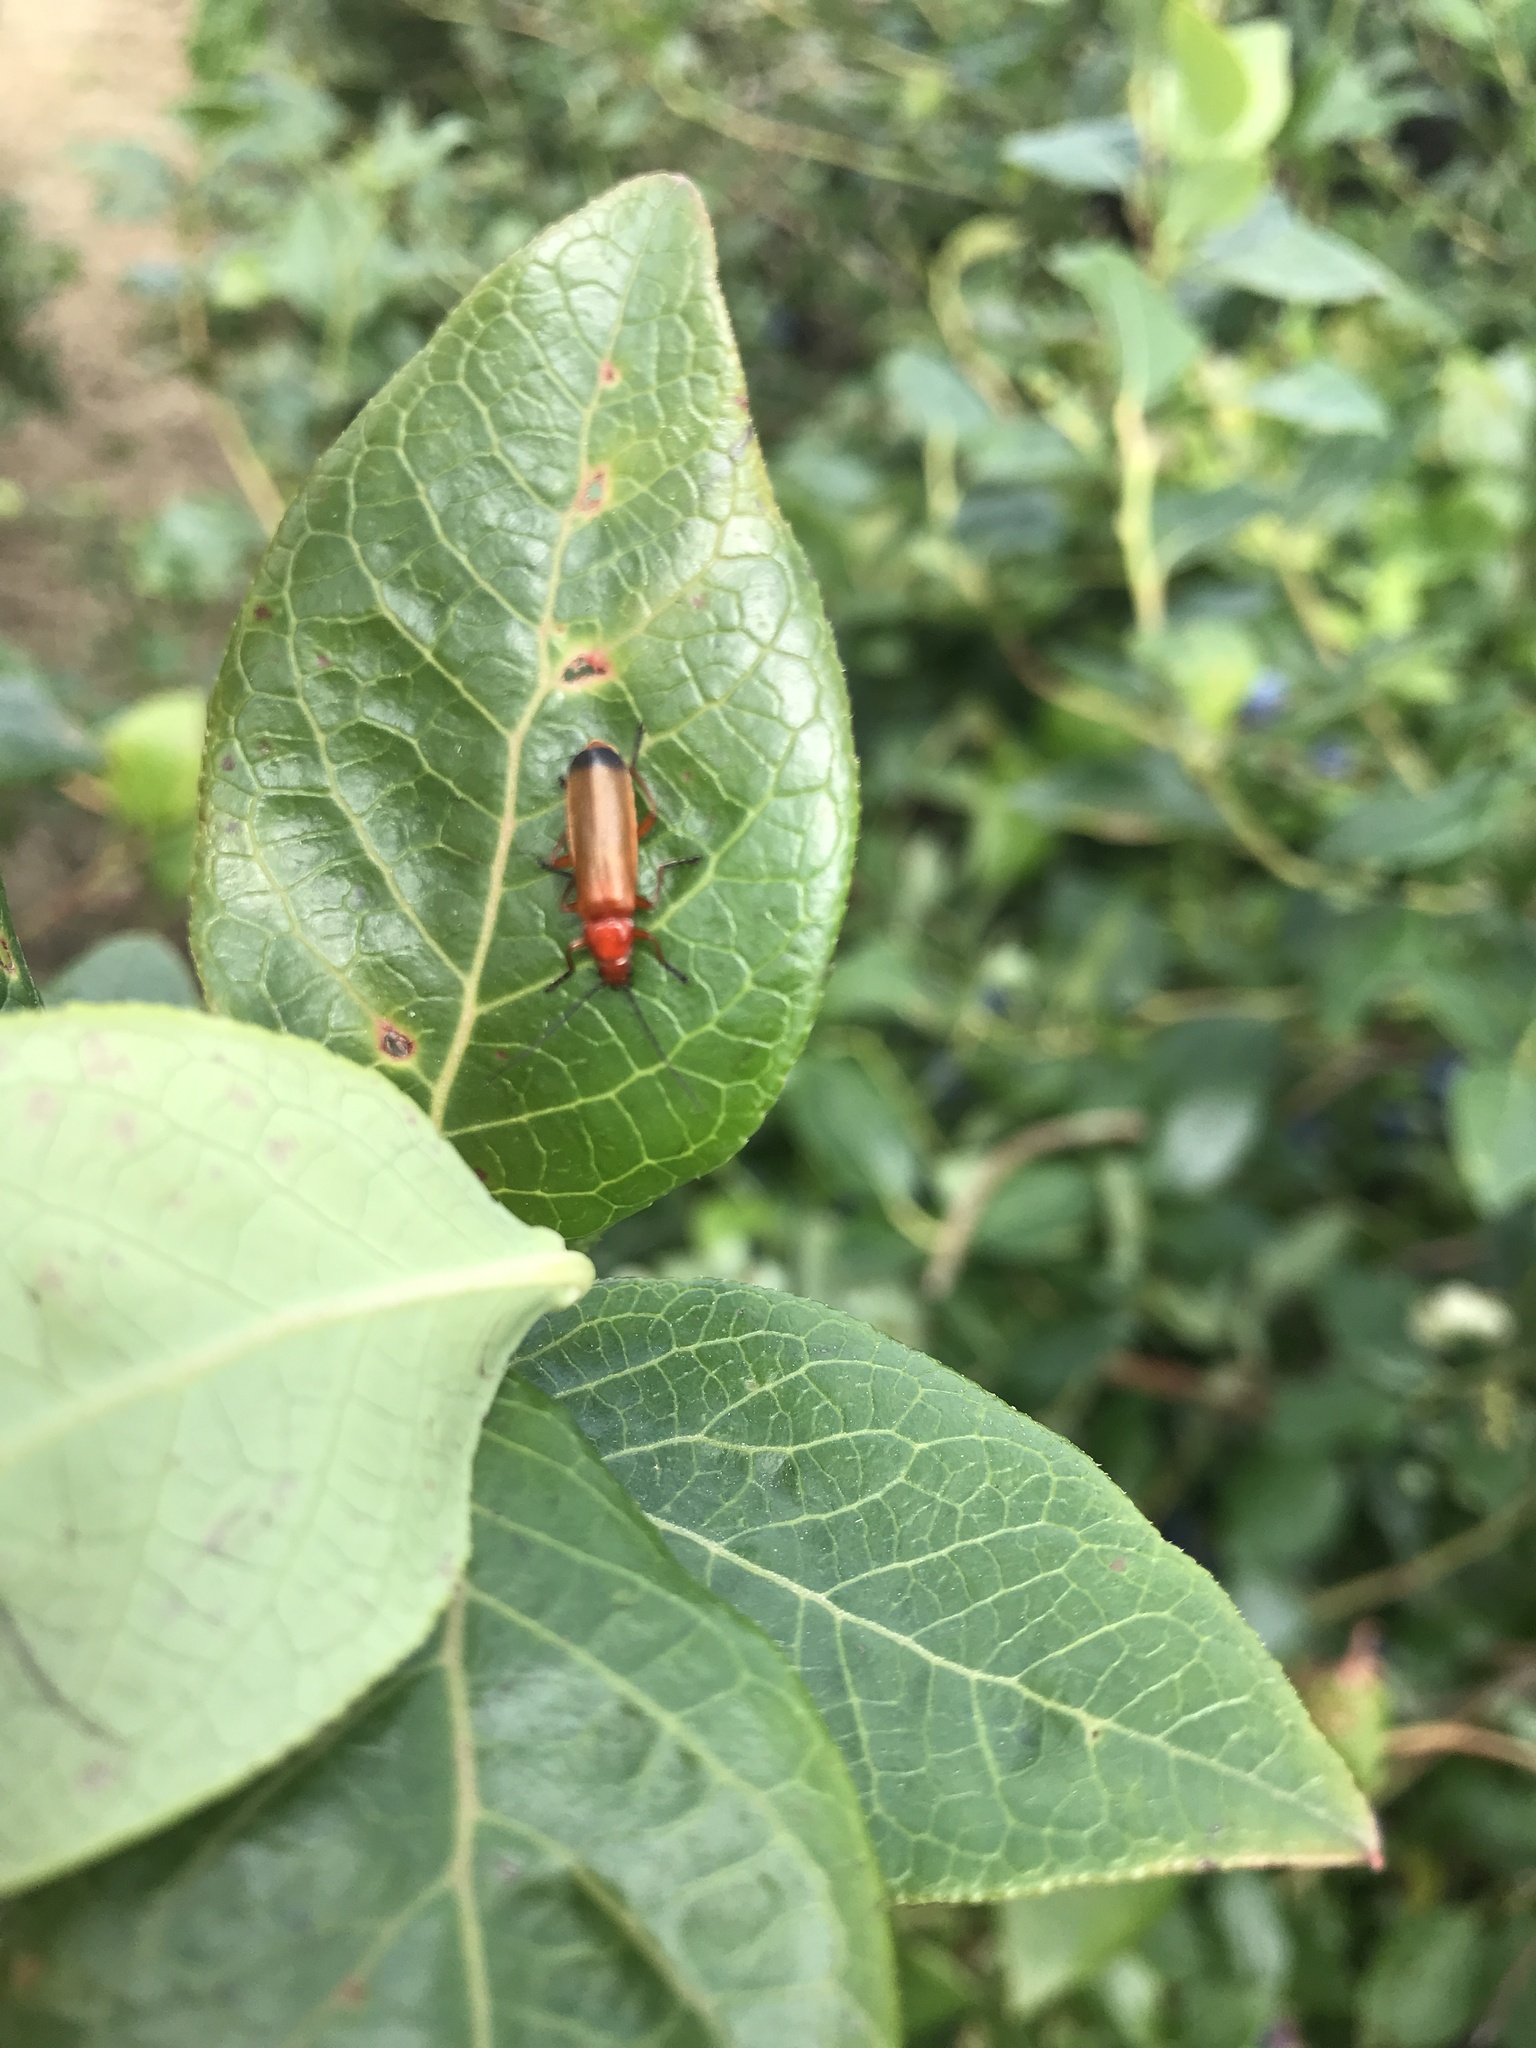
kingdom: Animalia
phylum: Arthropoda
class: Insecta
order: Coleoptera
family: Cantharidae
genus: Rhagonycha
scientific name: Rhagonycha fulva
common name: Common red soldier beetle
